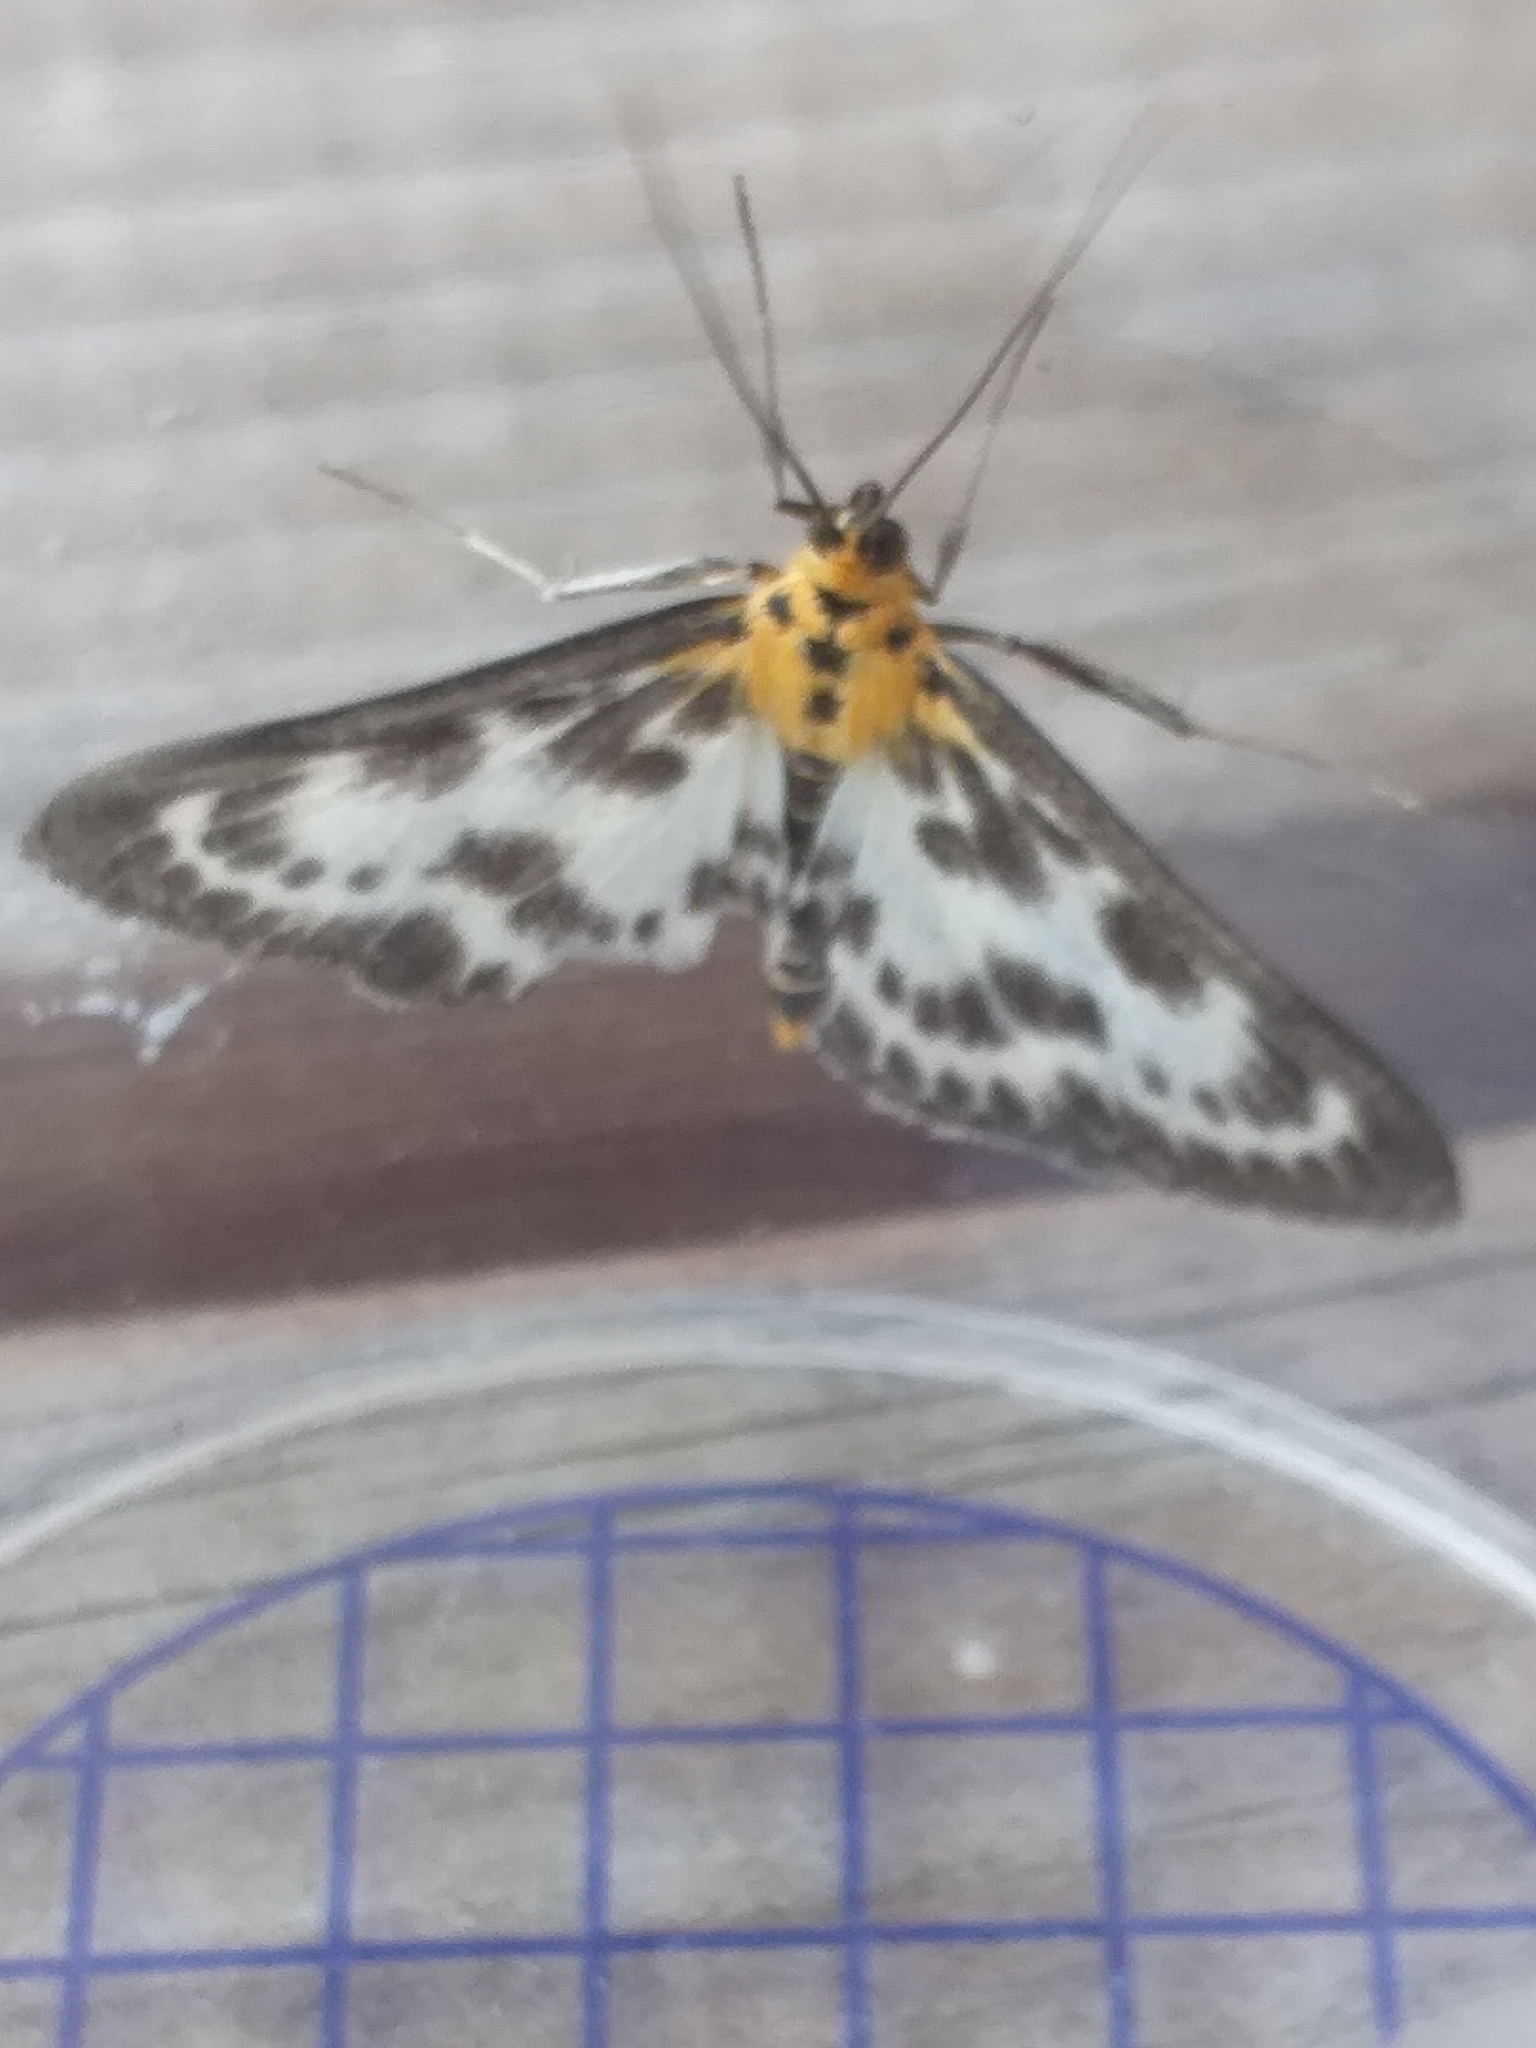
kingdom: Animalia
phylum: Arthropoda
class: Insecta
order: Lepidoptera
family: Crambidae
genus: Anania
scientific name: Anania hortulata
